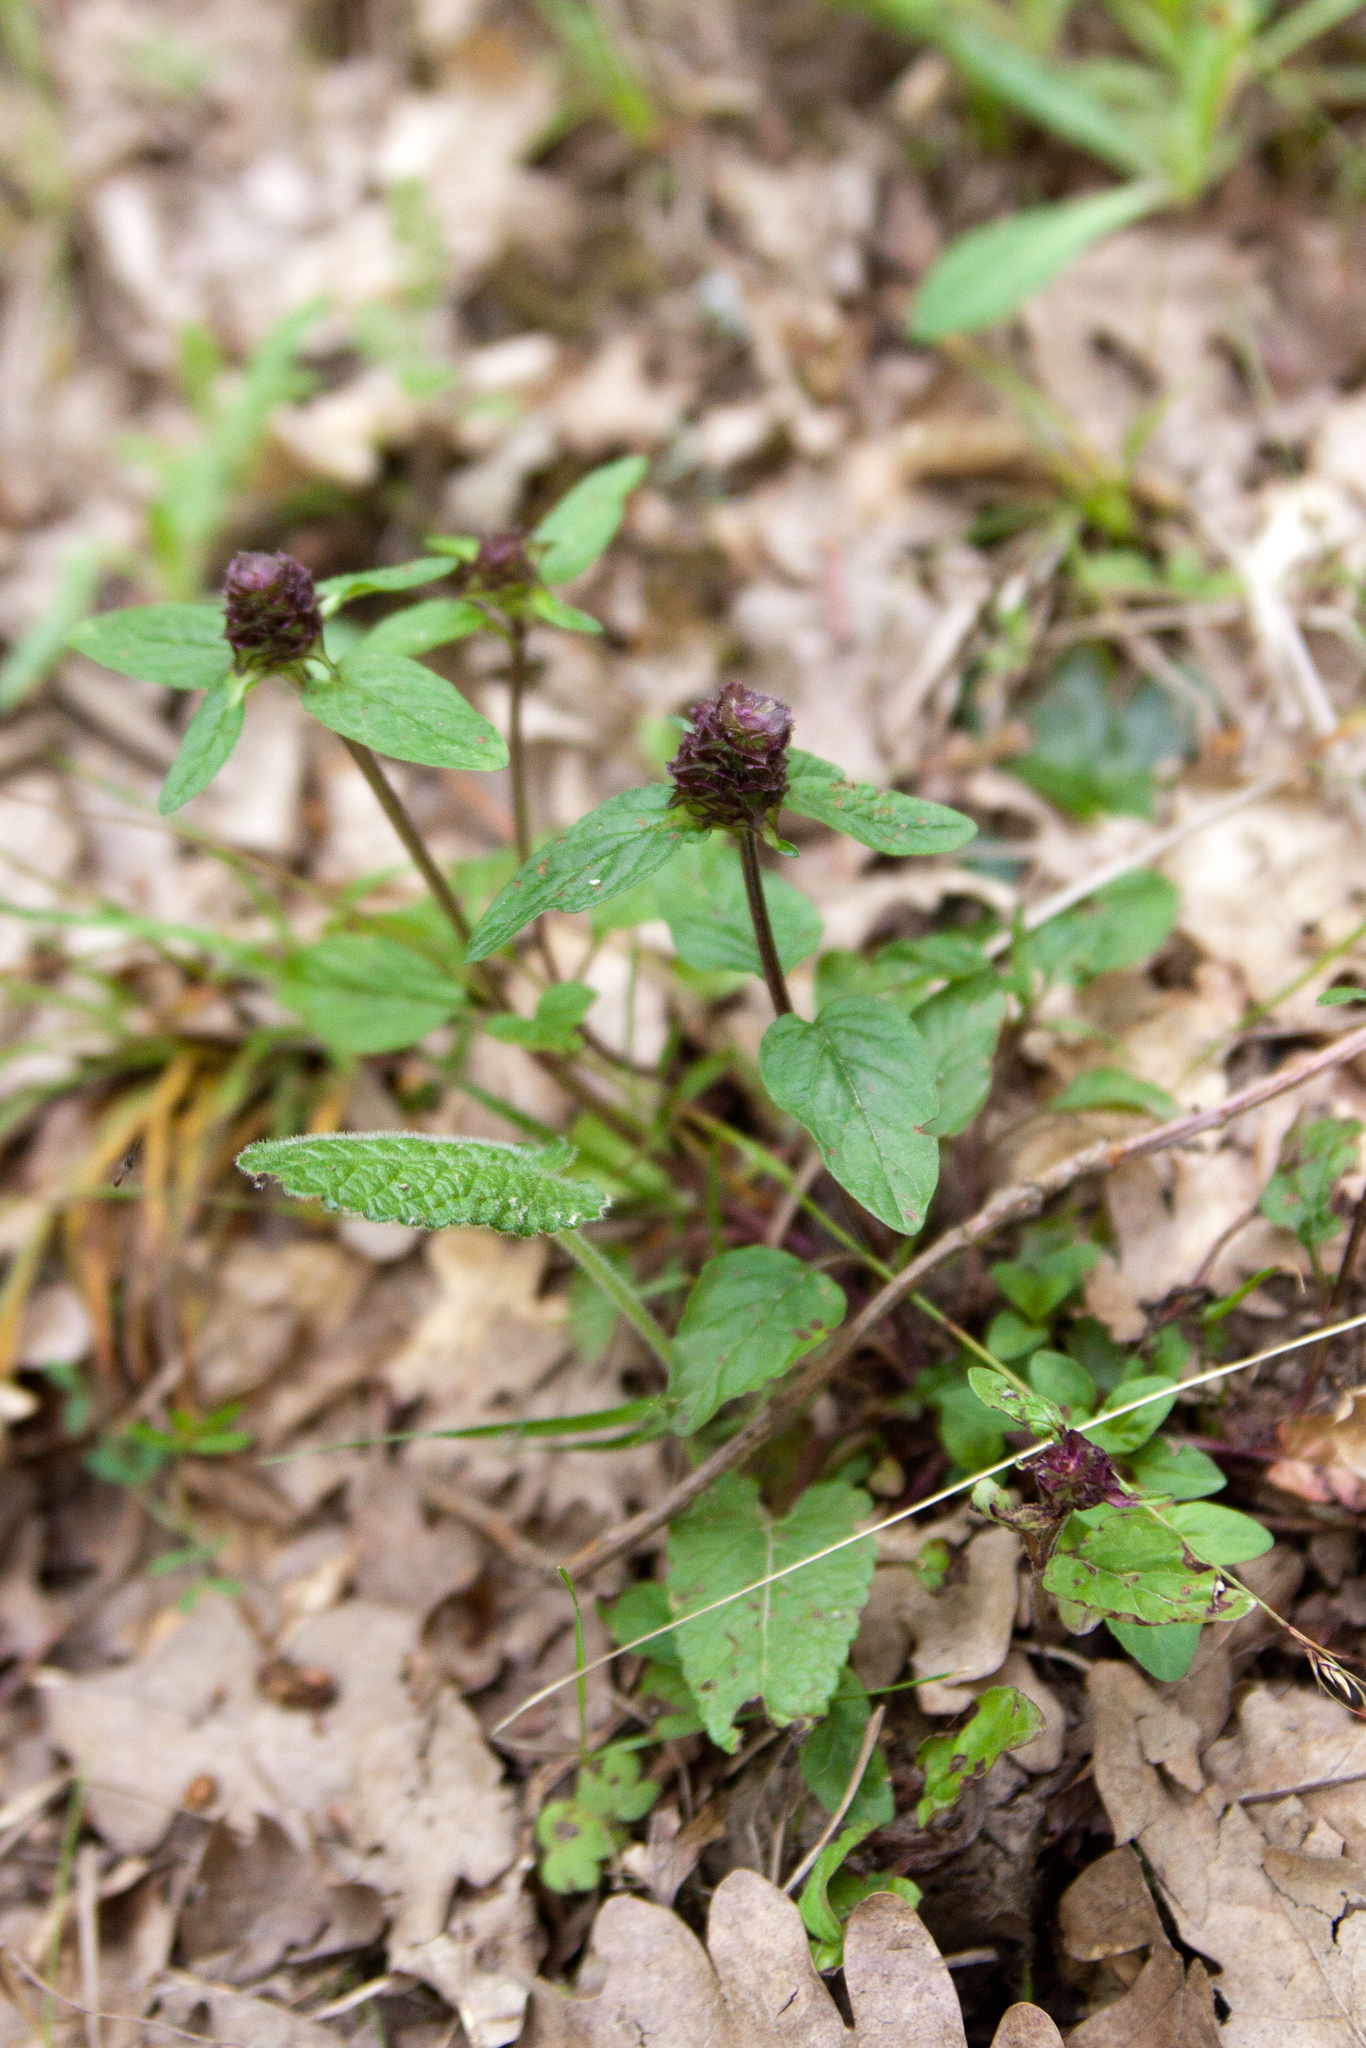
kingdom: Plantae
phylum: Tracheophyta
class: Magnoliopsida
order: Lamiales
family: Lamiaceae
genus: Prunella
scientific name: Prunella vulgaris
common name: Heal-all
